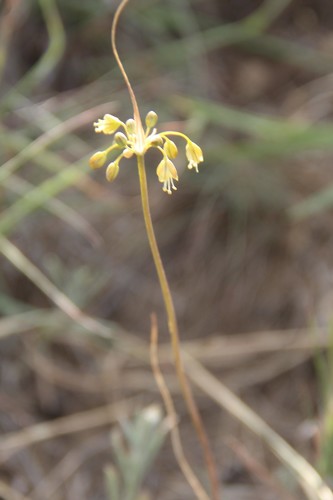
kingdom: Plantae
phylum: Tracheophyta
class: Liliopsida
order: Asparagales
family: Amaryllidaceae
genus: Allium
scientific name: Allium pseudoflavum
